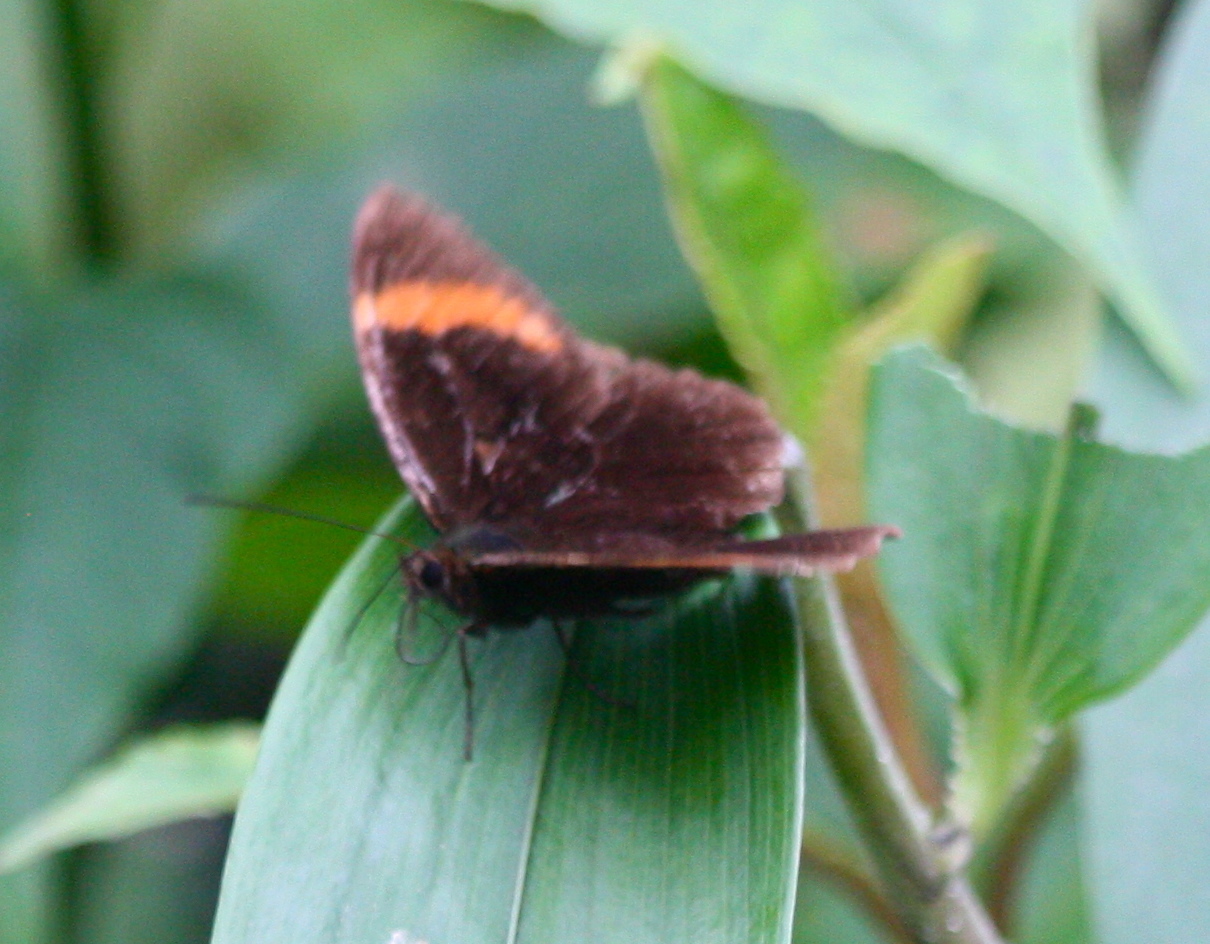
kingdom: Animalia
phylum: Arthropoda
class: Insecta
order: Lepidoptera
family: Nymphalidae
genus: Pedaliodes
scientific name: Pedaliodes pacifica
